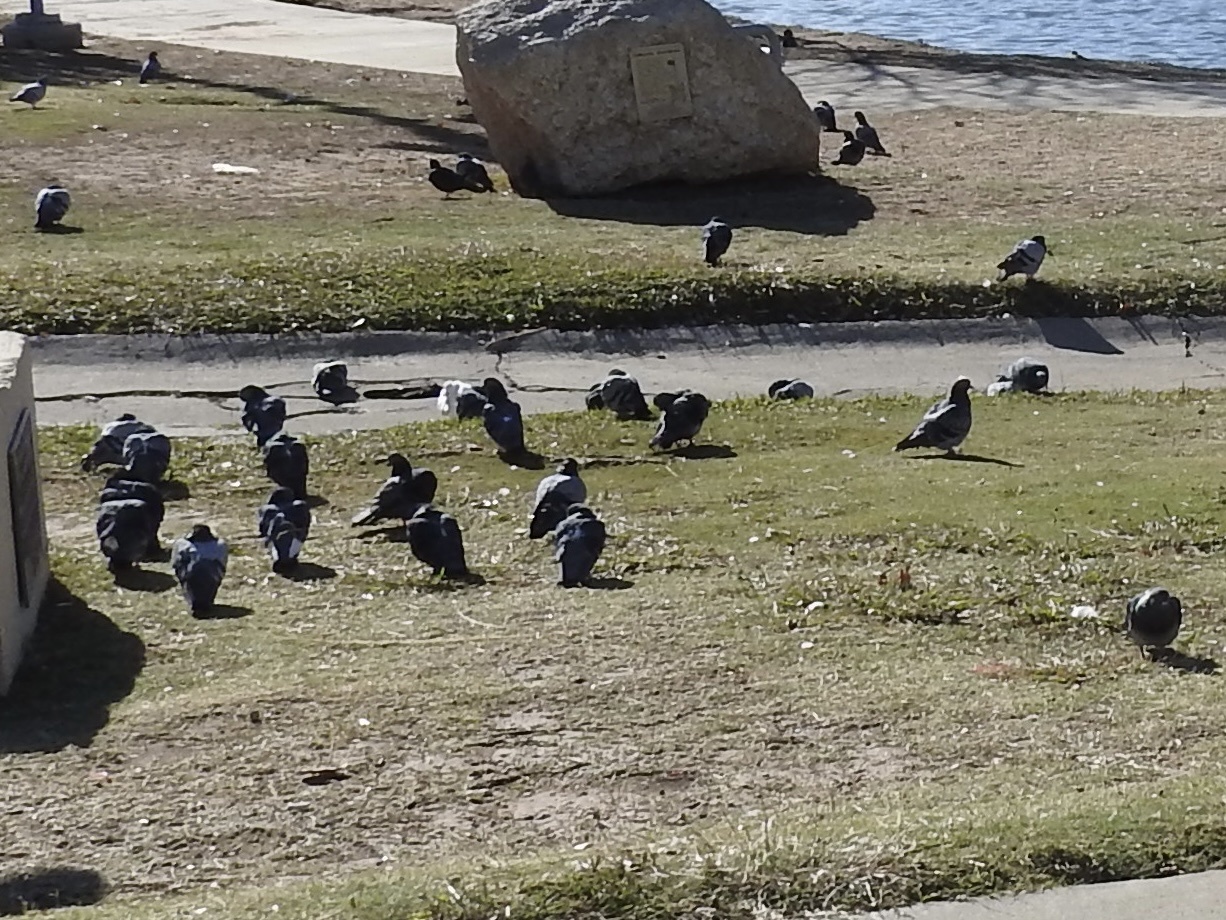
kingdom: Animalia
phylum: Chordata
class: Aves
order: Columbiformes
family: Columbidae
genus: Columba
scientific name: Columba livia
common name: Rock pigeon
